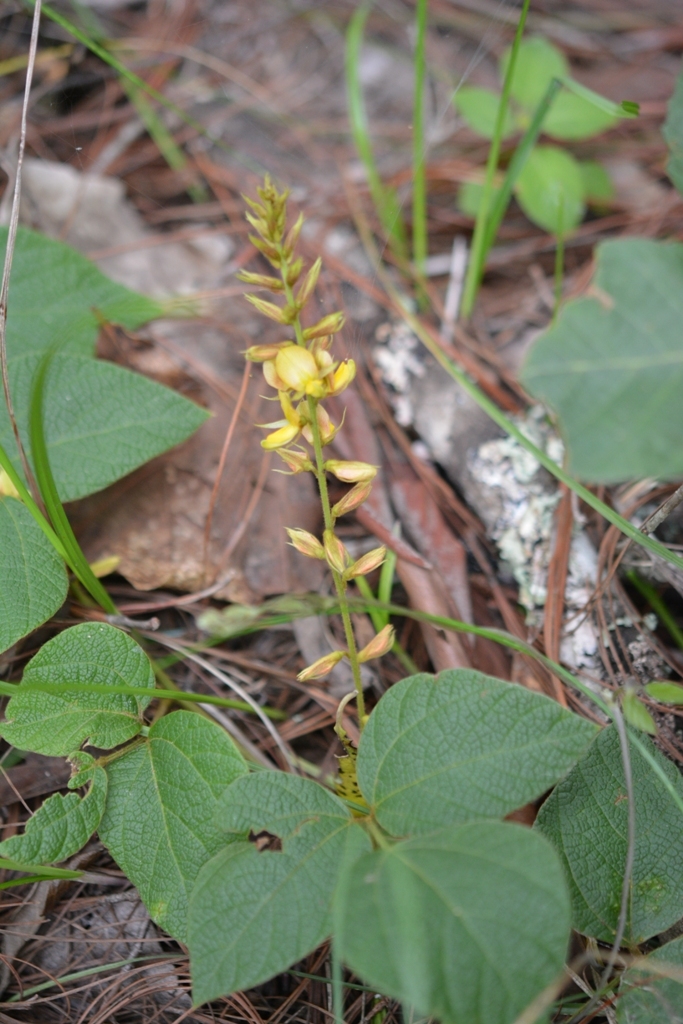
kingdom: Plantae
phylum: Tracheophyta
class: Magnoliopsida
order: Fabales
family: Fabaceae
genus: Rhynchosia
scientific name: Rhynchosia longeracemosa
